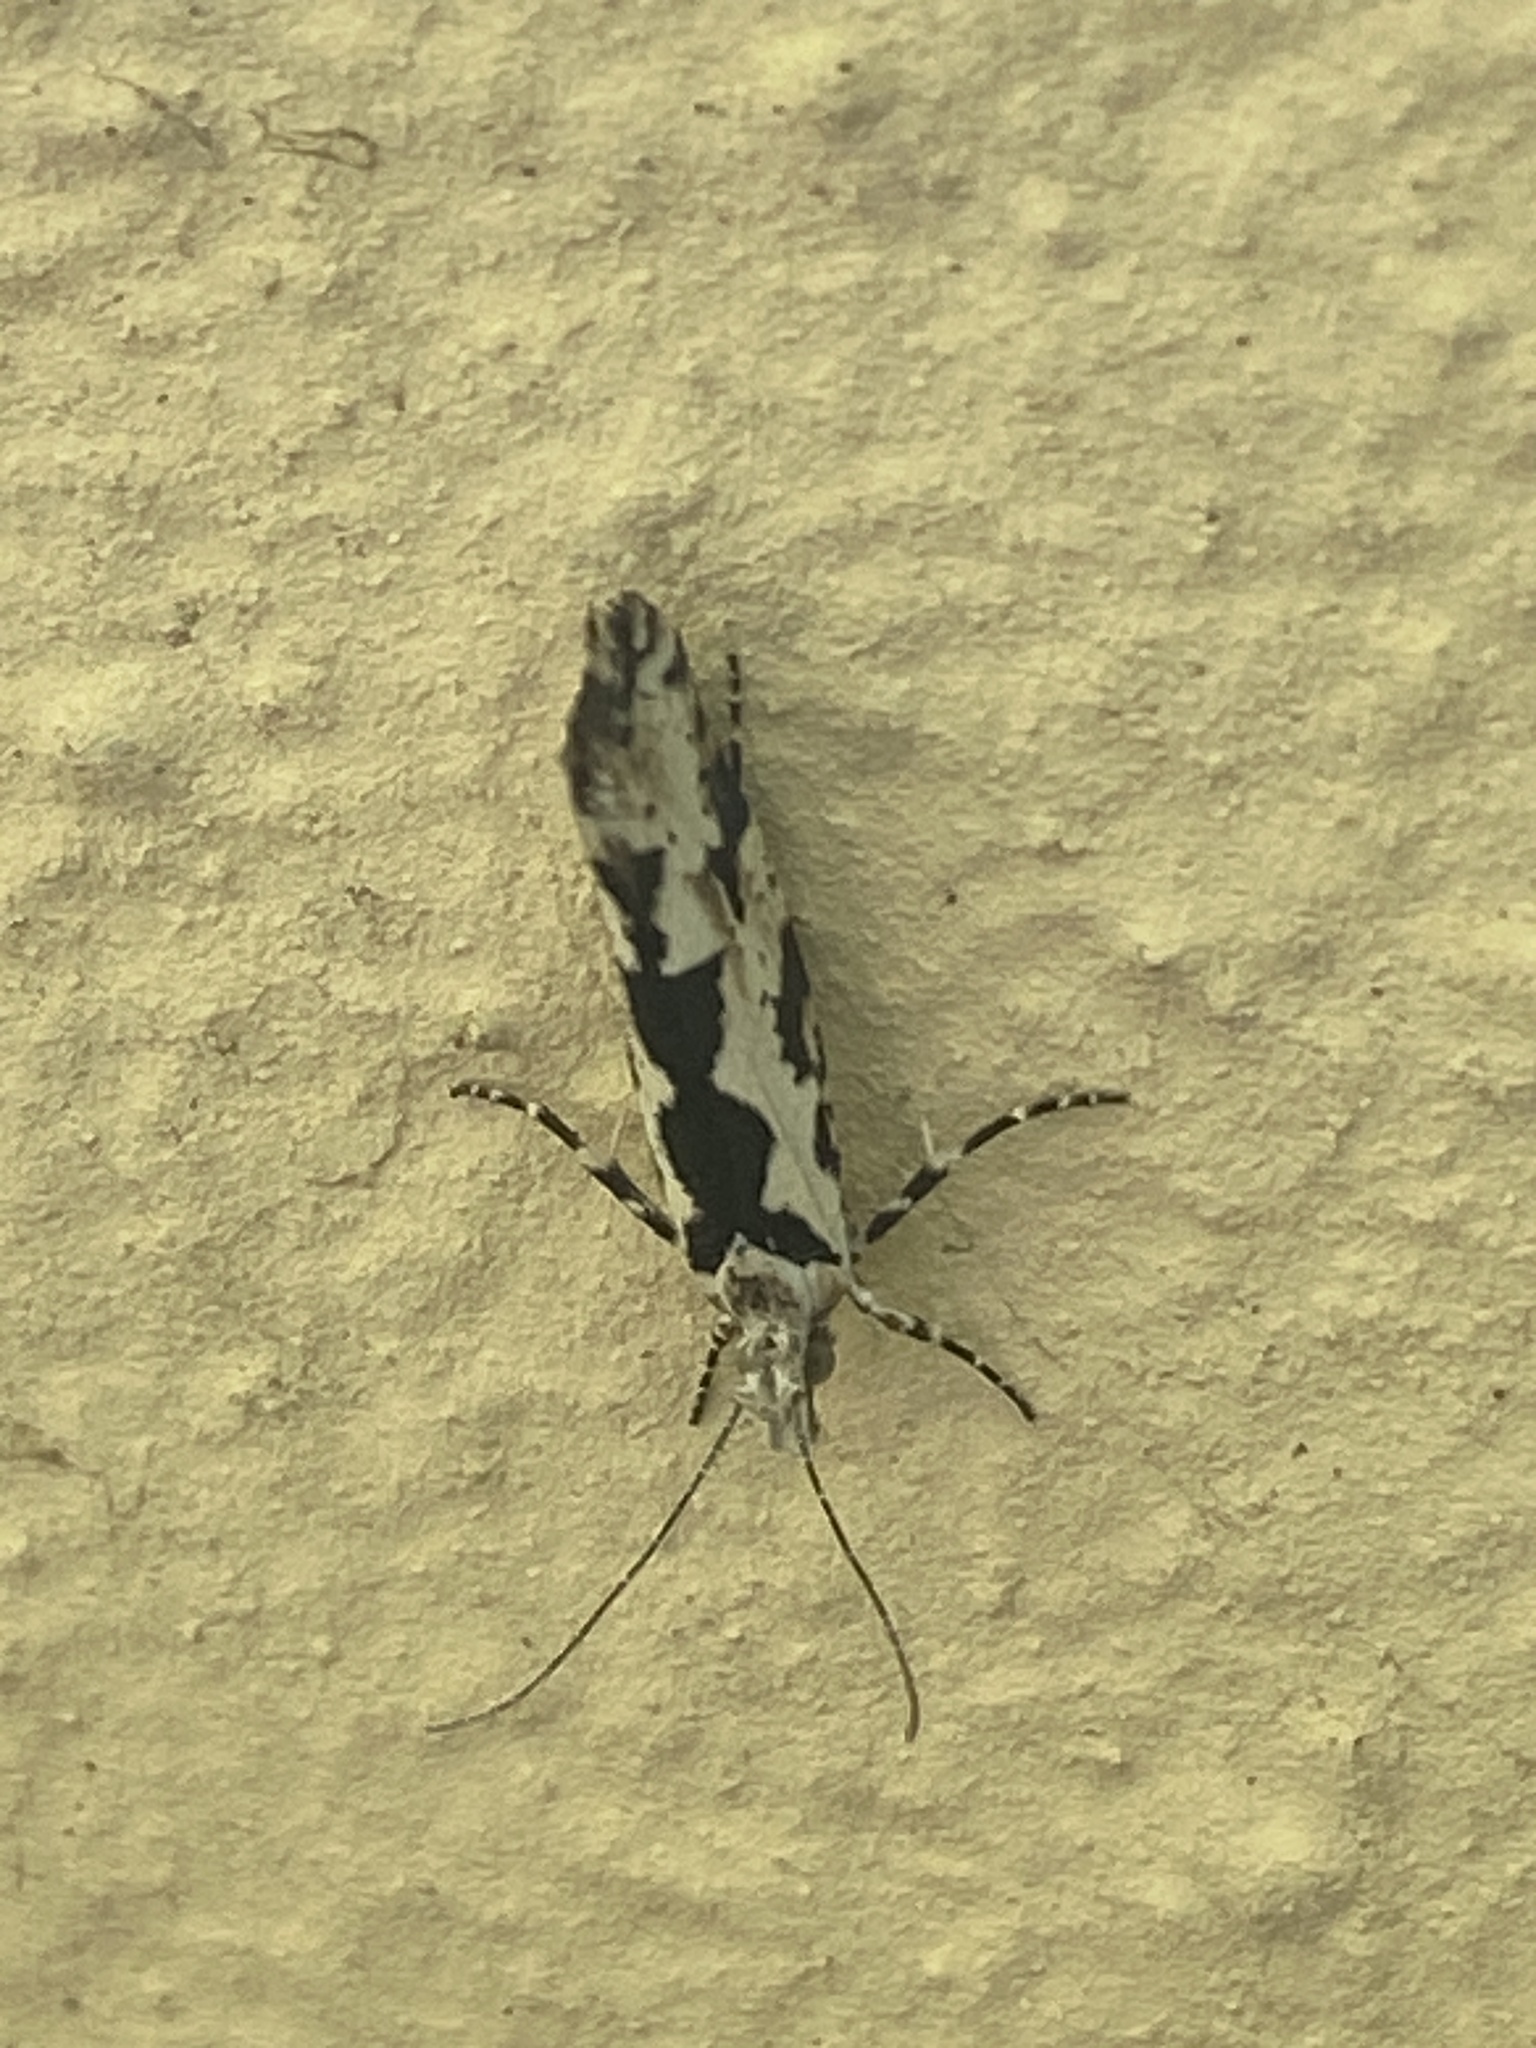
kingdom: Animalia
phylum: Arthropoda
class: Insecta
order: Lepidoptera
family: Plutellidae
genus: Ypsolophus
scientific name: Ypsolophus sequella
